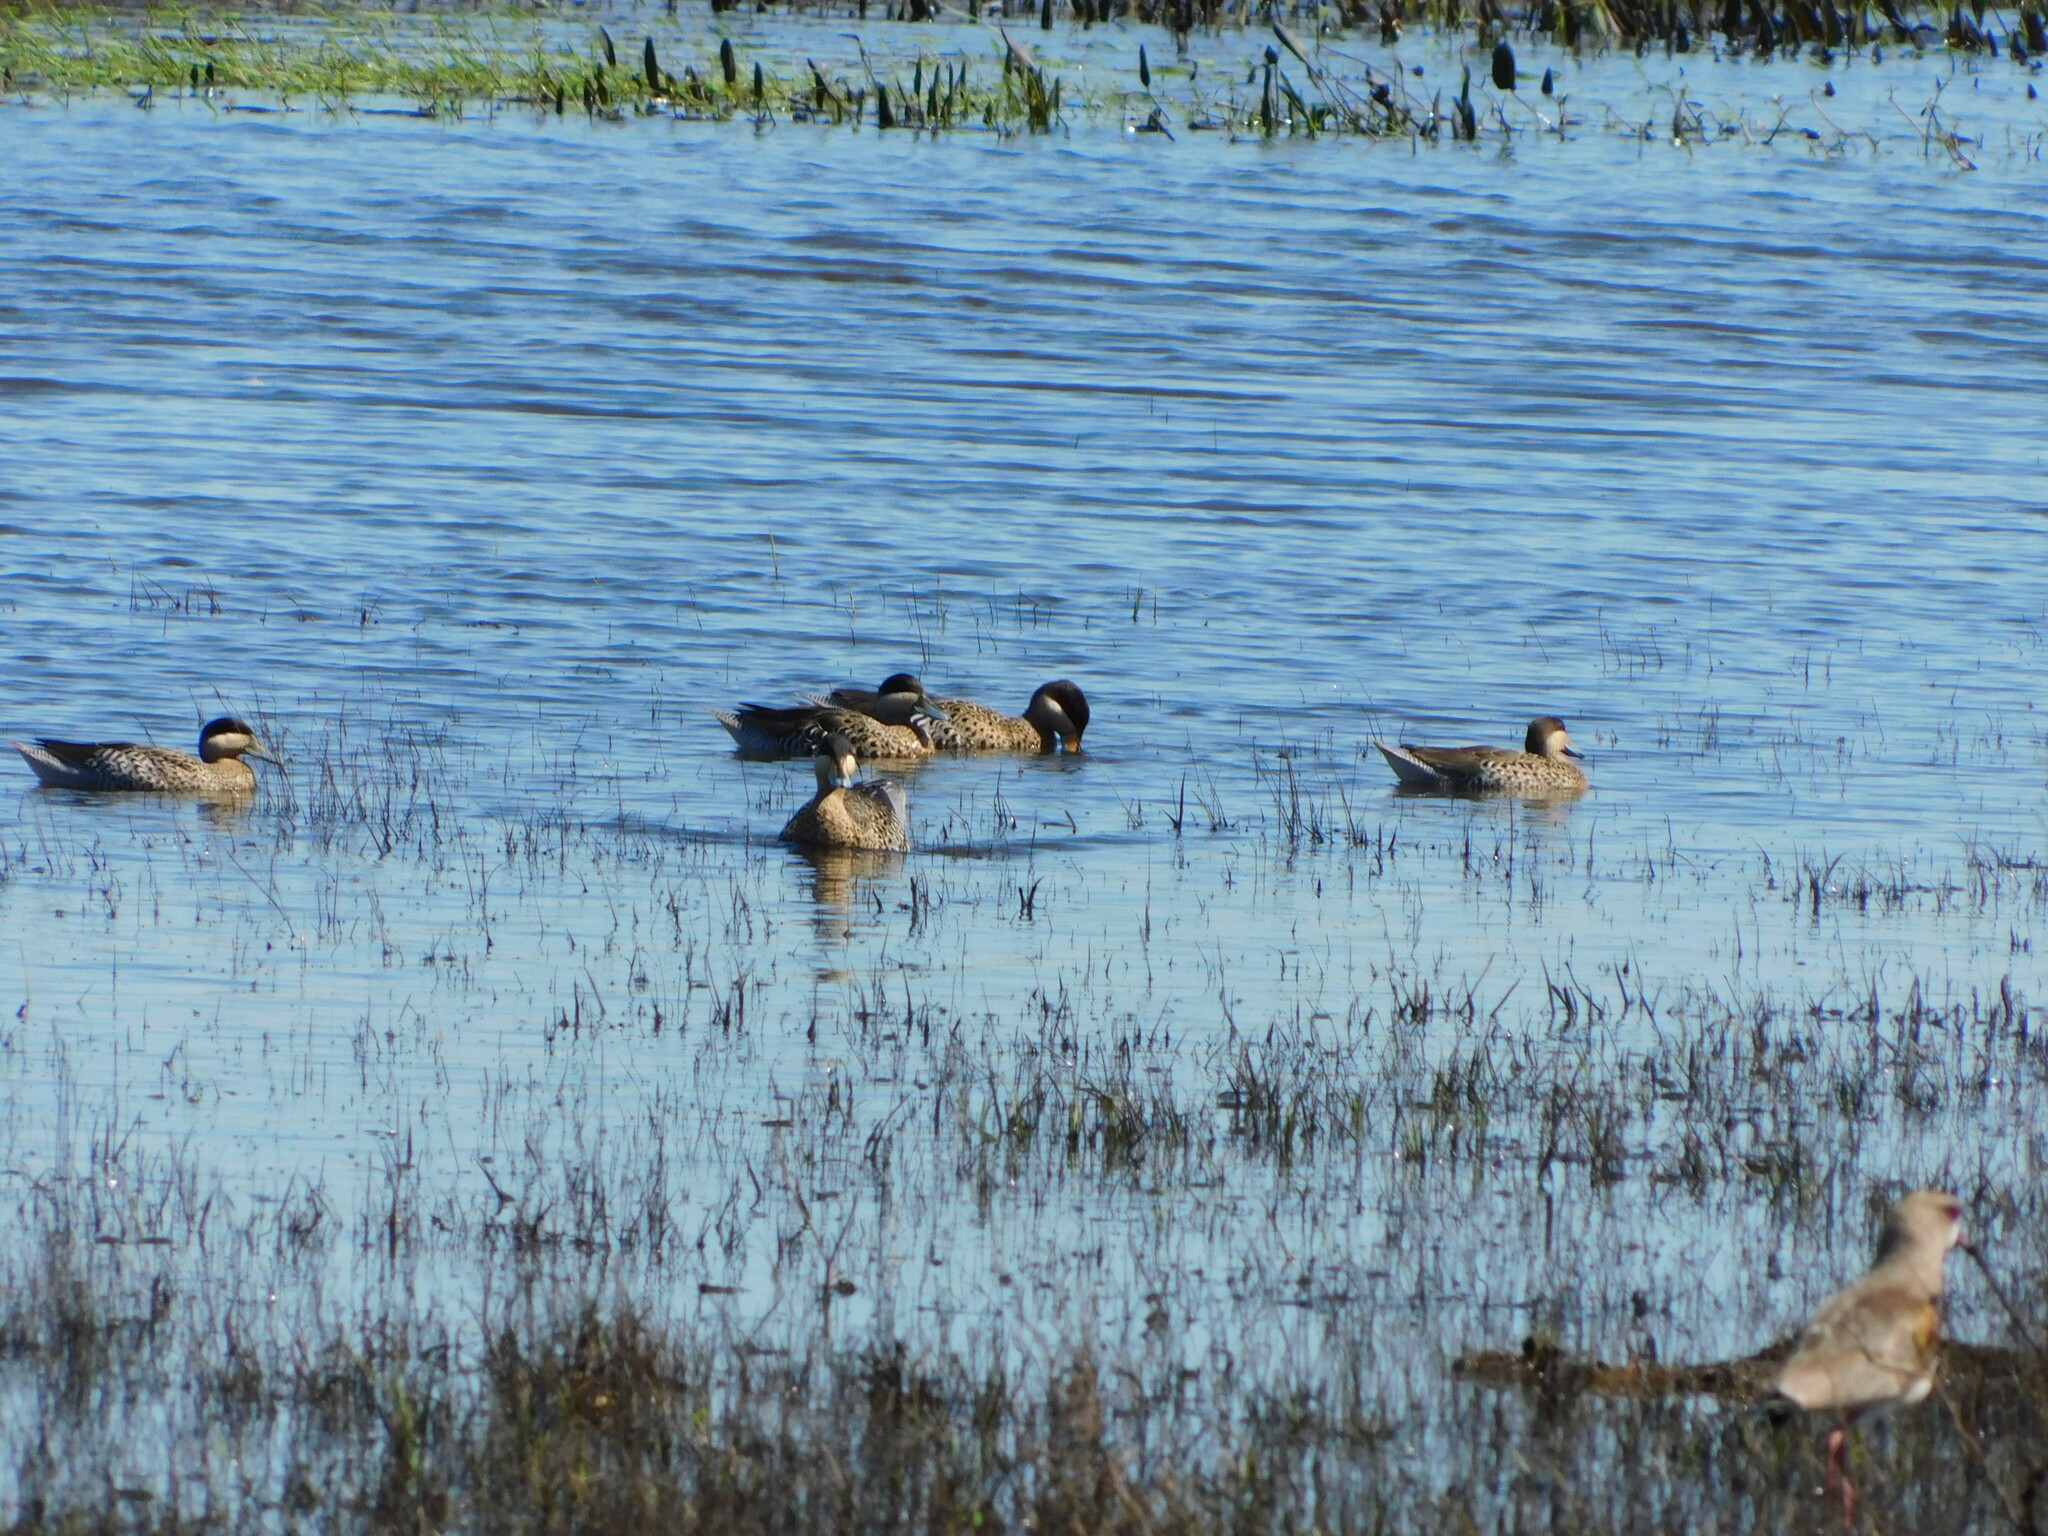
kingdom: Animalia
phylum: Chordata
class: Aves
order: Anseriformes
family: Anatidae
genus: Spatula
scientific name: Spatula versicolor
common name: Silver teal
